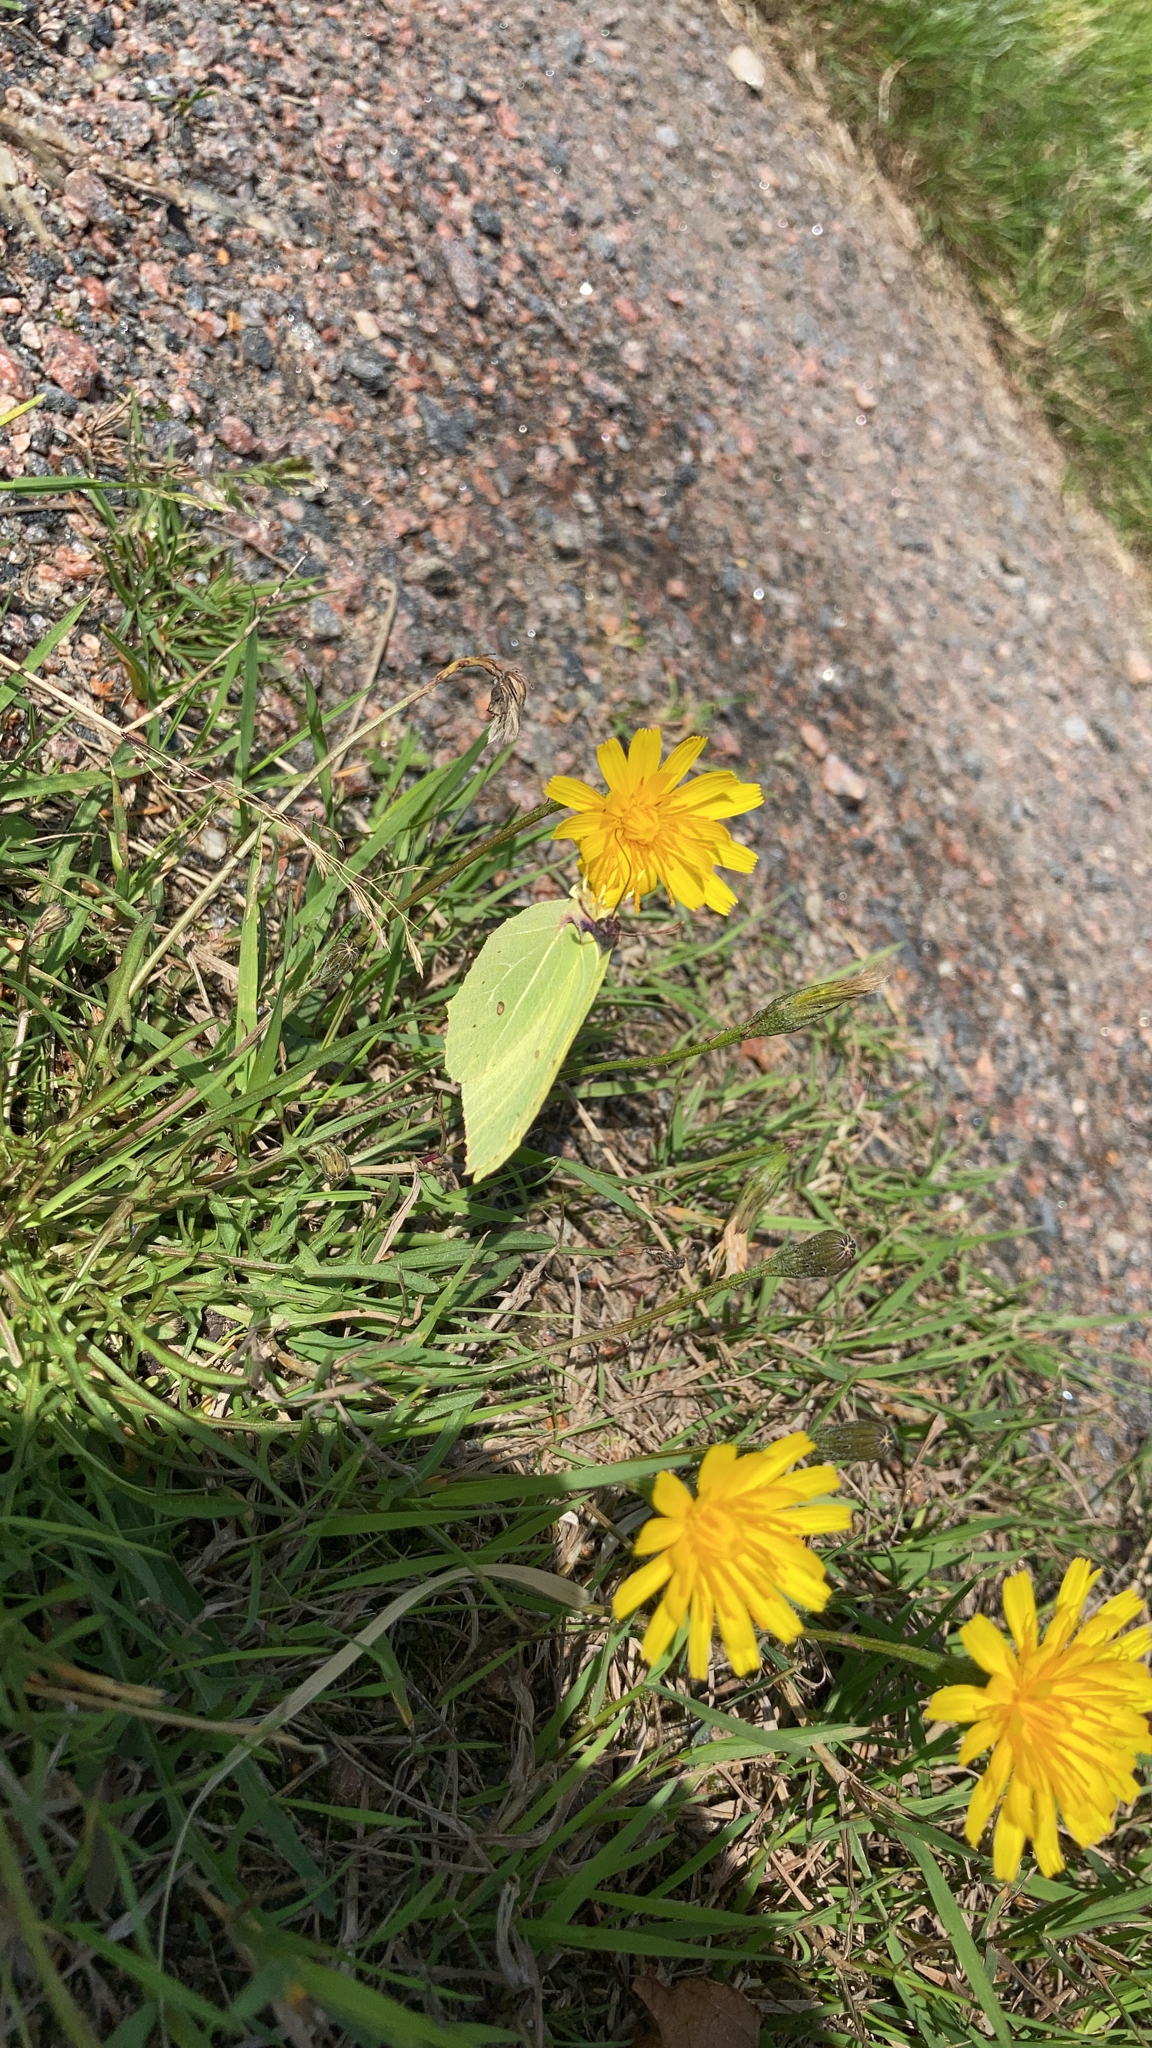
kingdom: Animalia
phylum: Arthropoda
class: Insecta
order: Lepidoptera
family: Pieridae
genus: Gonepteryx
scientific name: Gonepteryx rhamni
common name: Brimstone
